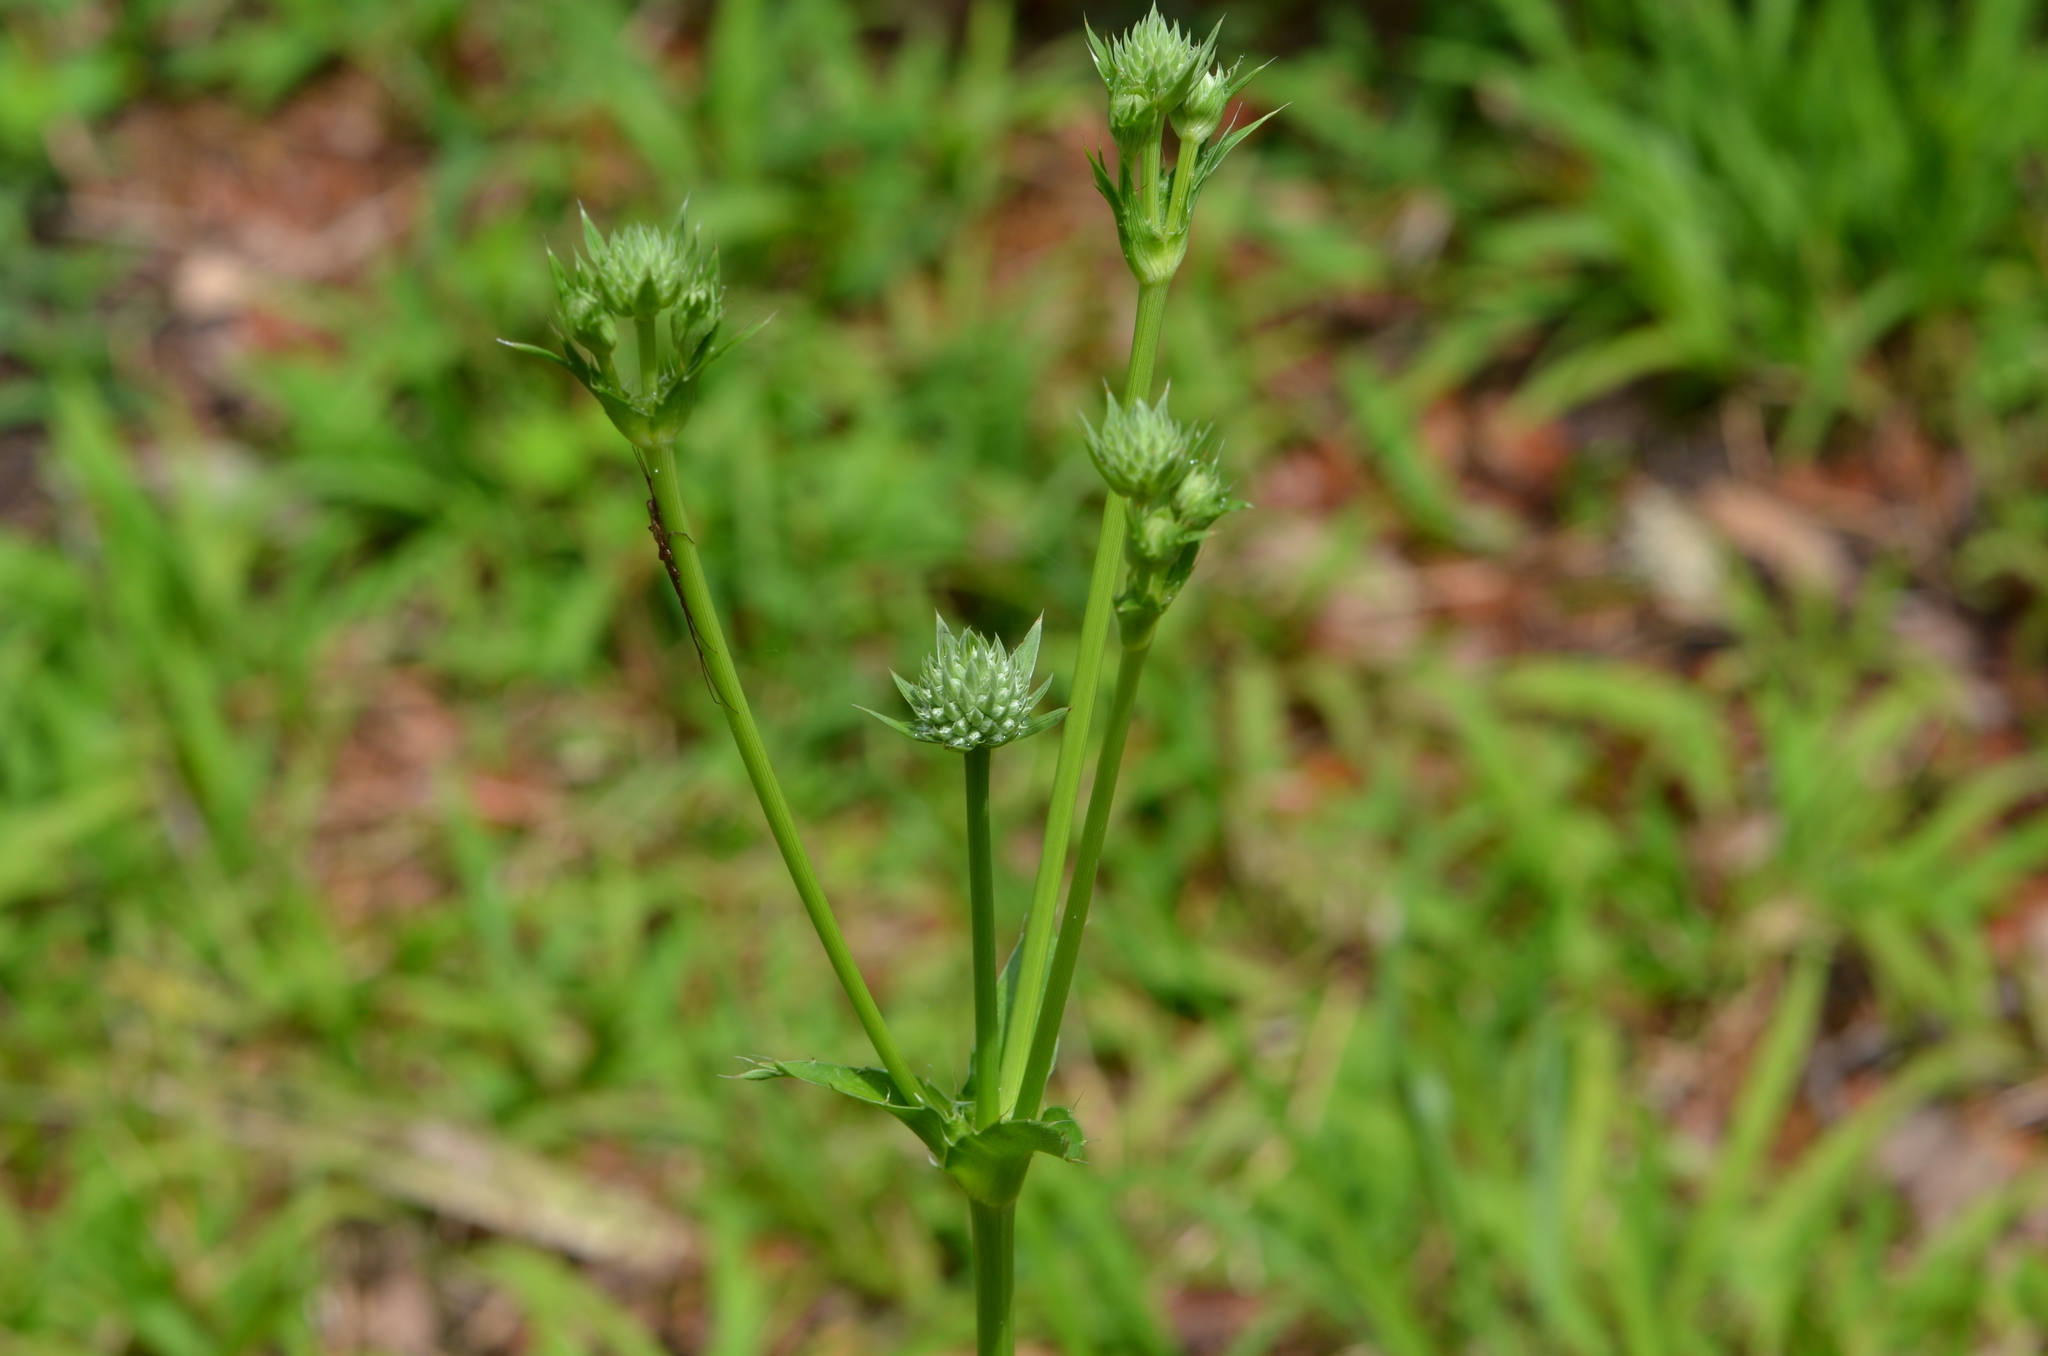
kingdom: Plantae
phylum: Tracheophyta
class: Magnoliopsida
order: Apiales
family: Apiaceae
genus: Eryngium
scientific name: Eryngium yuccifolium
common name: Button eryngo
